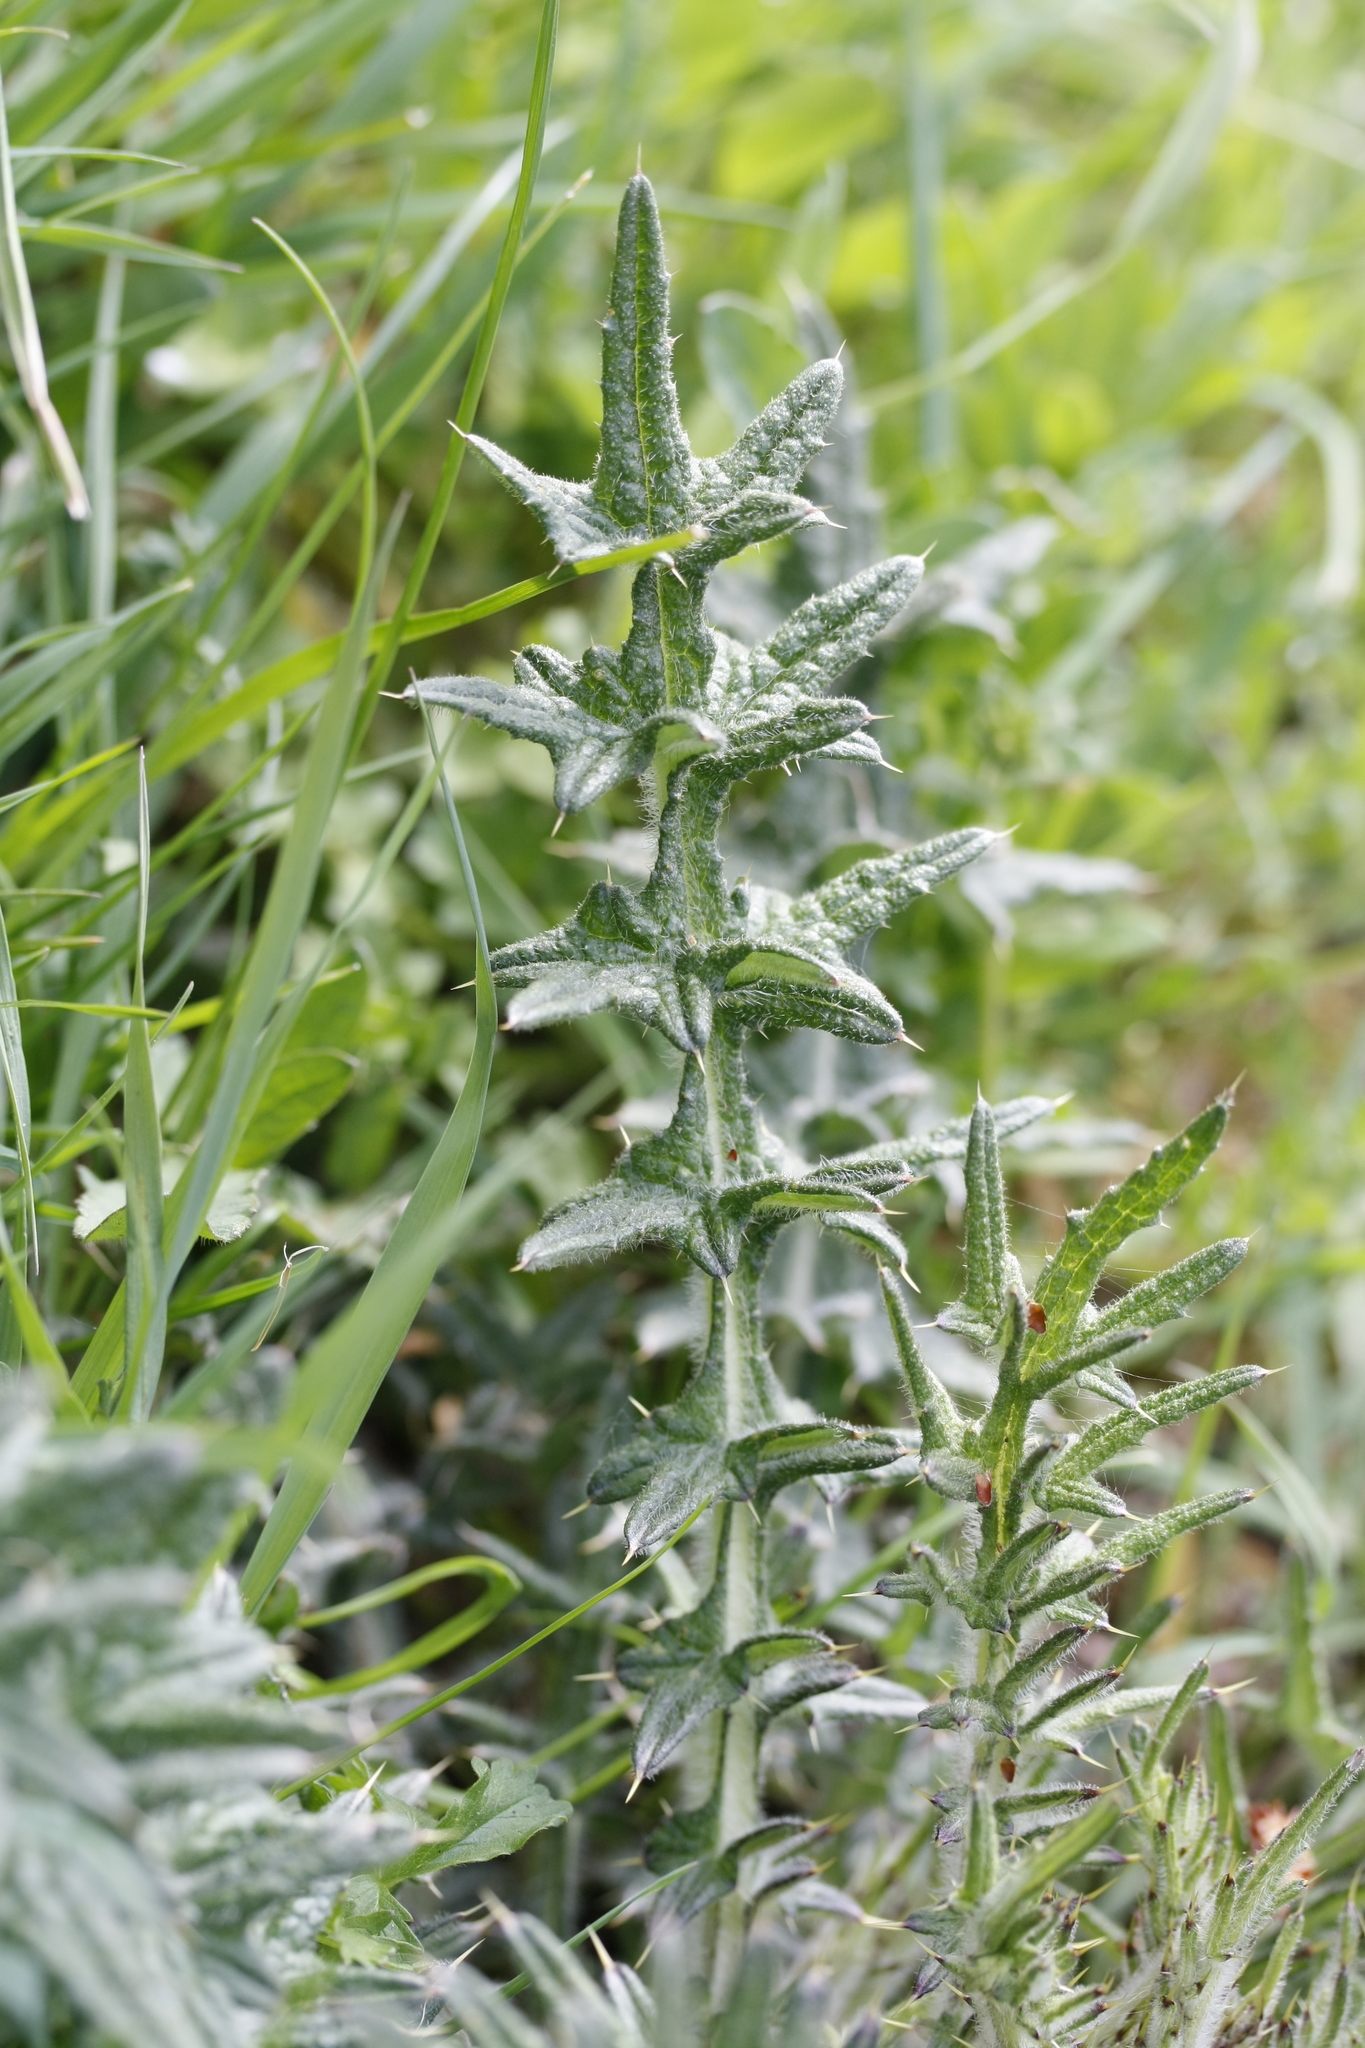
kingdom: Plantae
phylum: Tracheophyta
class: Magnoliopsida
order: Asterales
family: Asteraceae
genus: Cirsium
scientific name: Cirsium vulgare
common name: Bull thistle
